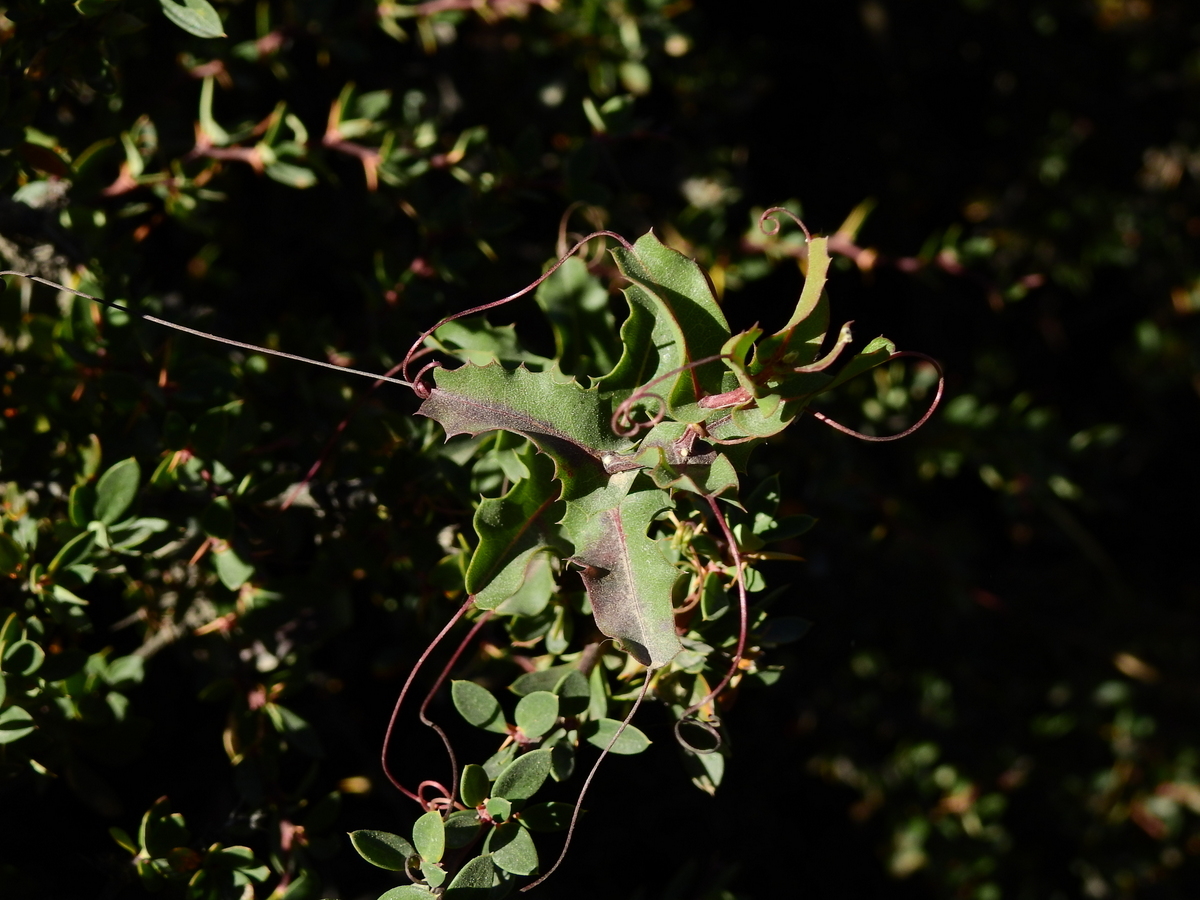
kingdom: Plantae
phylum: Tracheophyta
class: Magnoliopsida
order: Asterales
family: Asteraceae
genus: Mutisia
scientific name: Mutisia spinosa
